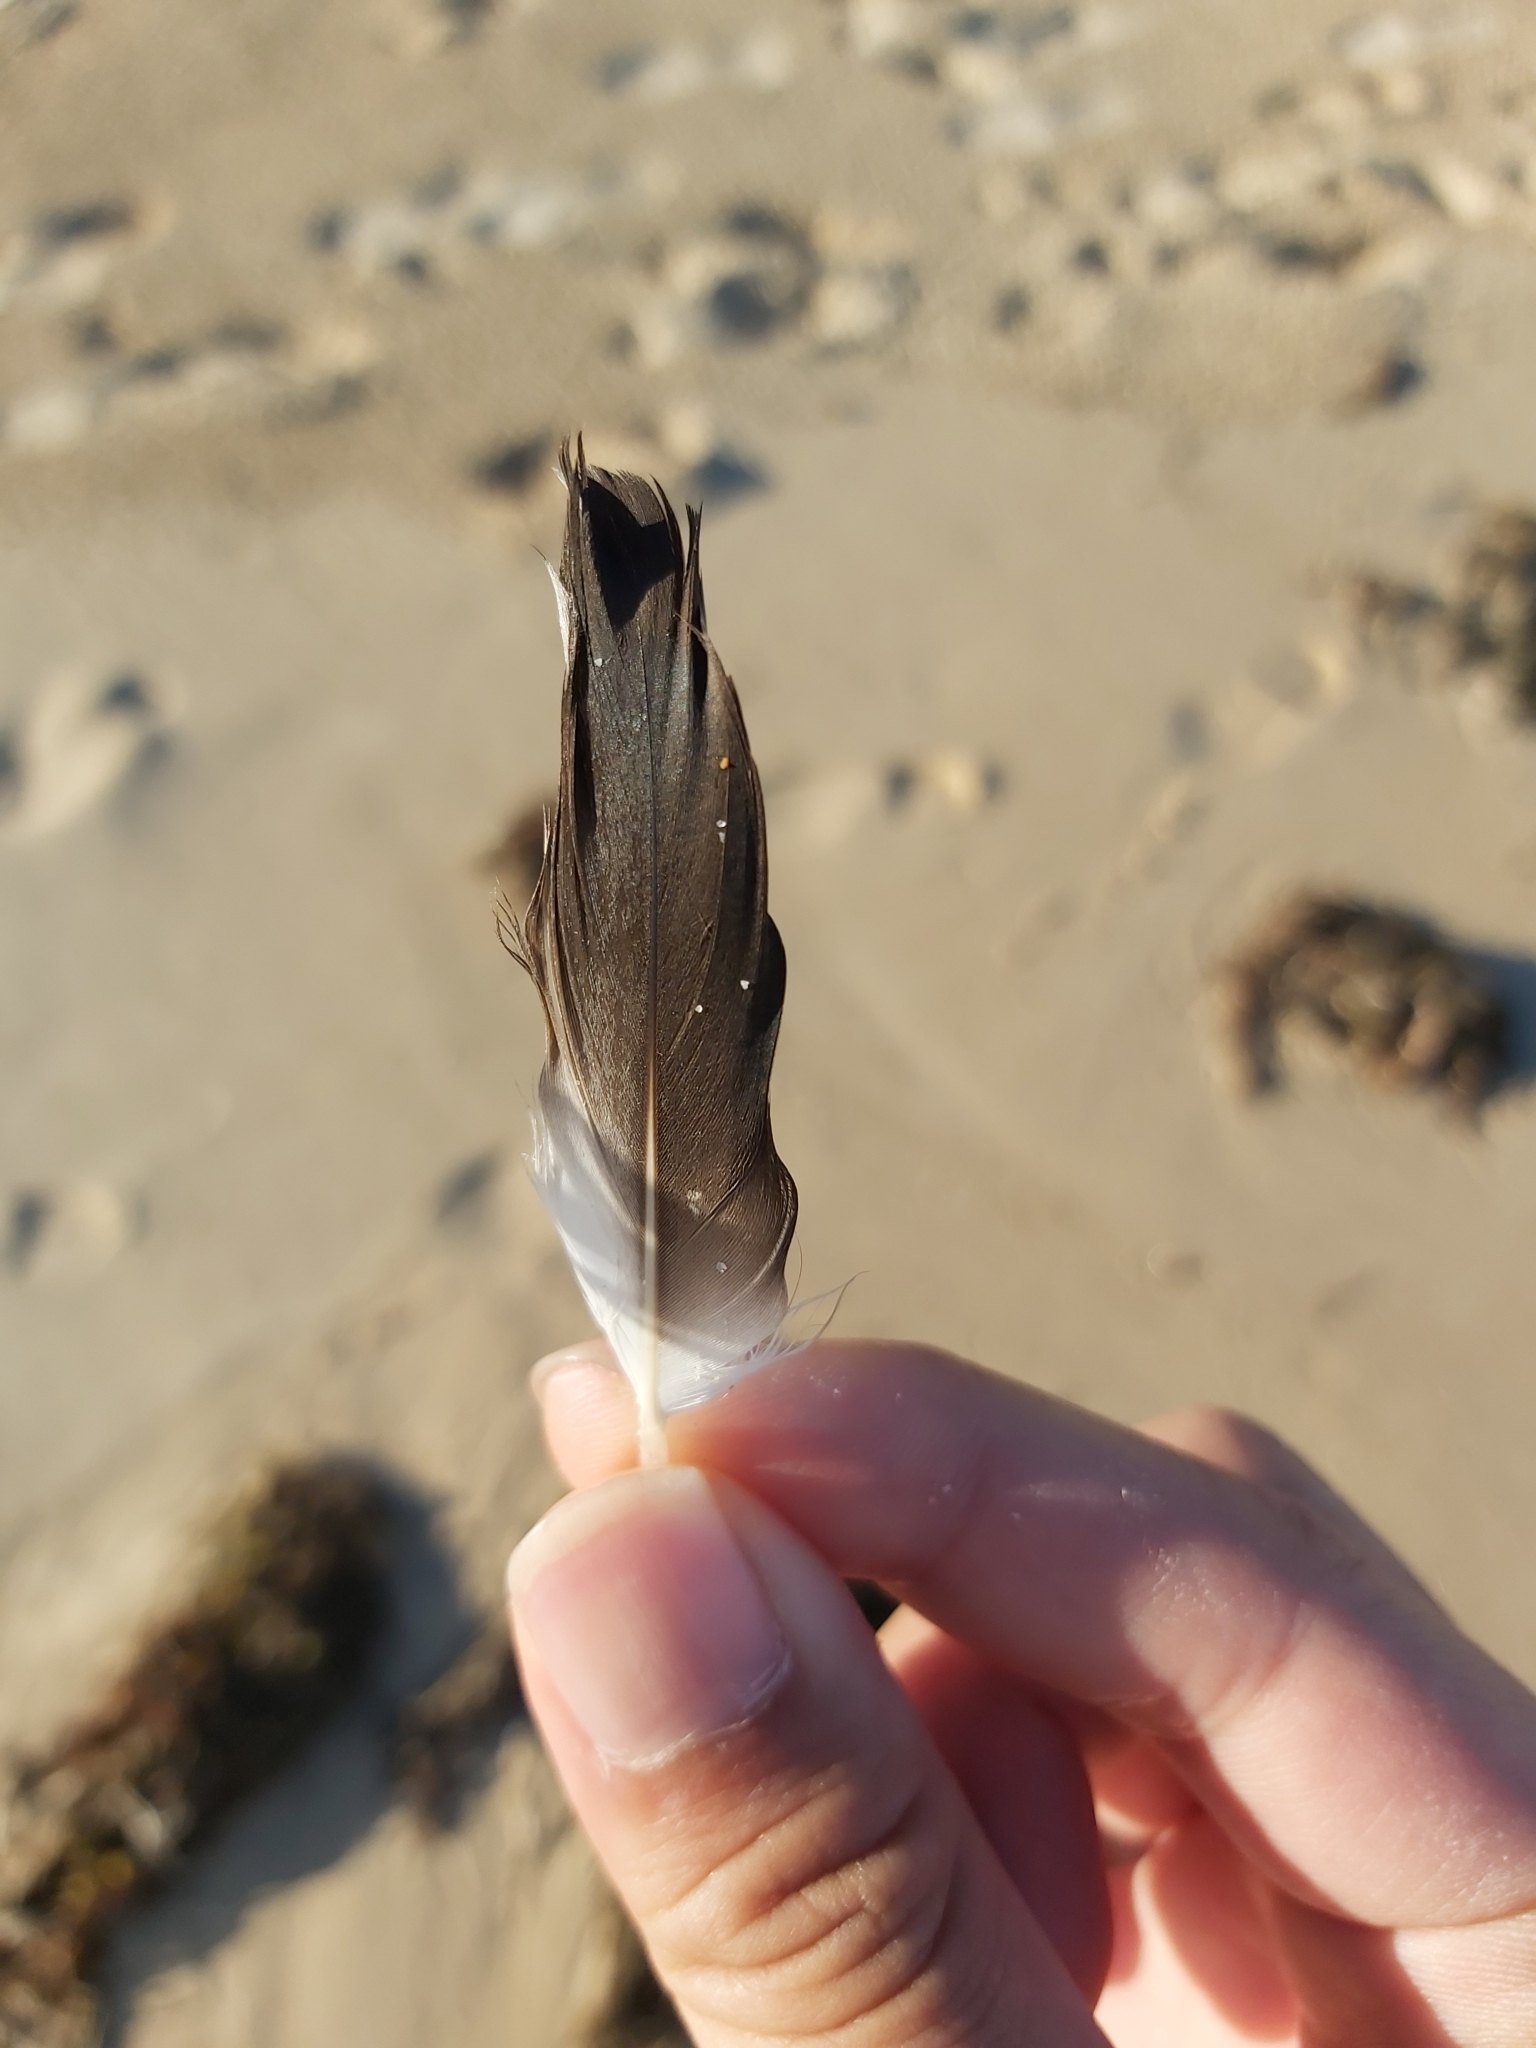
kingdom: Animalia
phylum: Chordata
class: Aves
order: Suliformes
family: Sulidae
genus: Morus
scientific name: Morus serrator
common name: Australasian gannet
